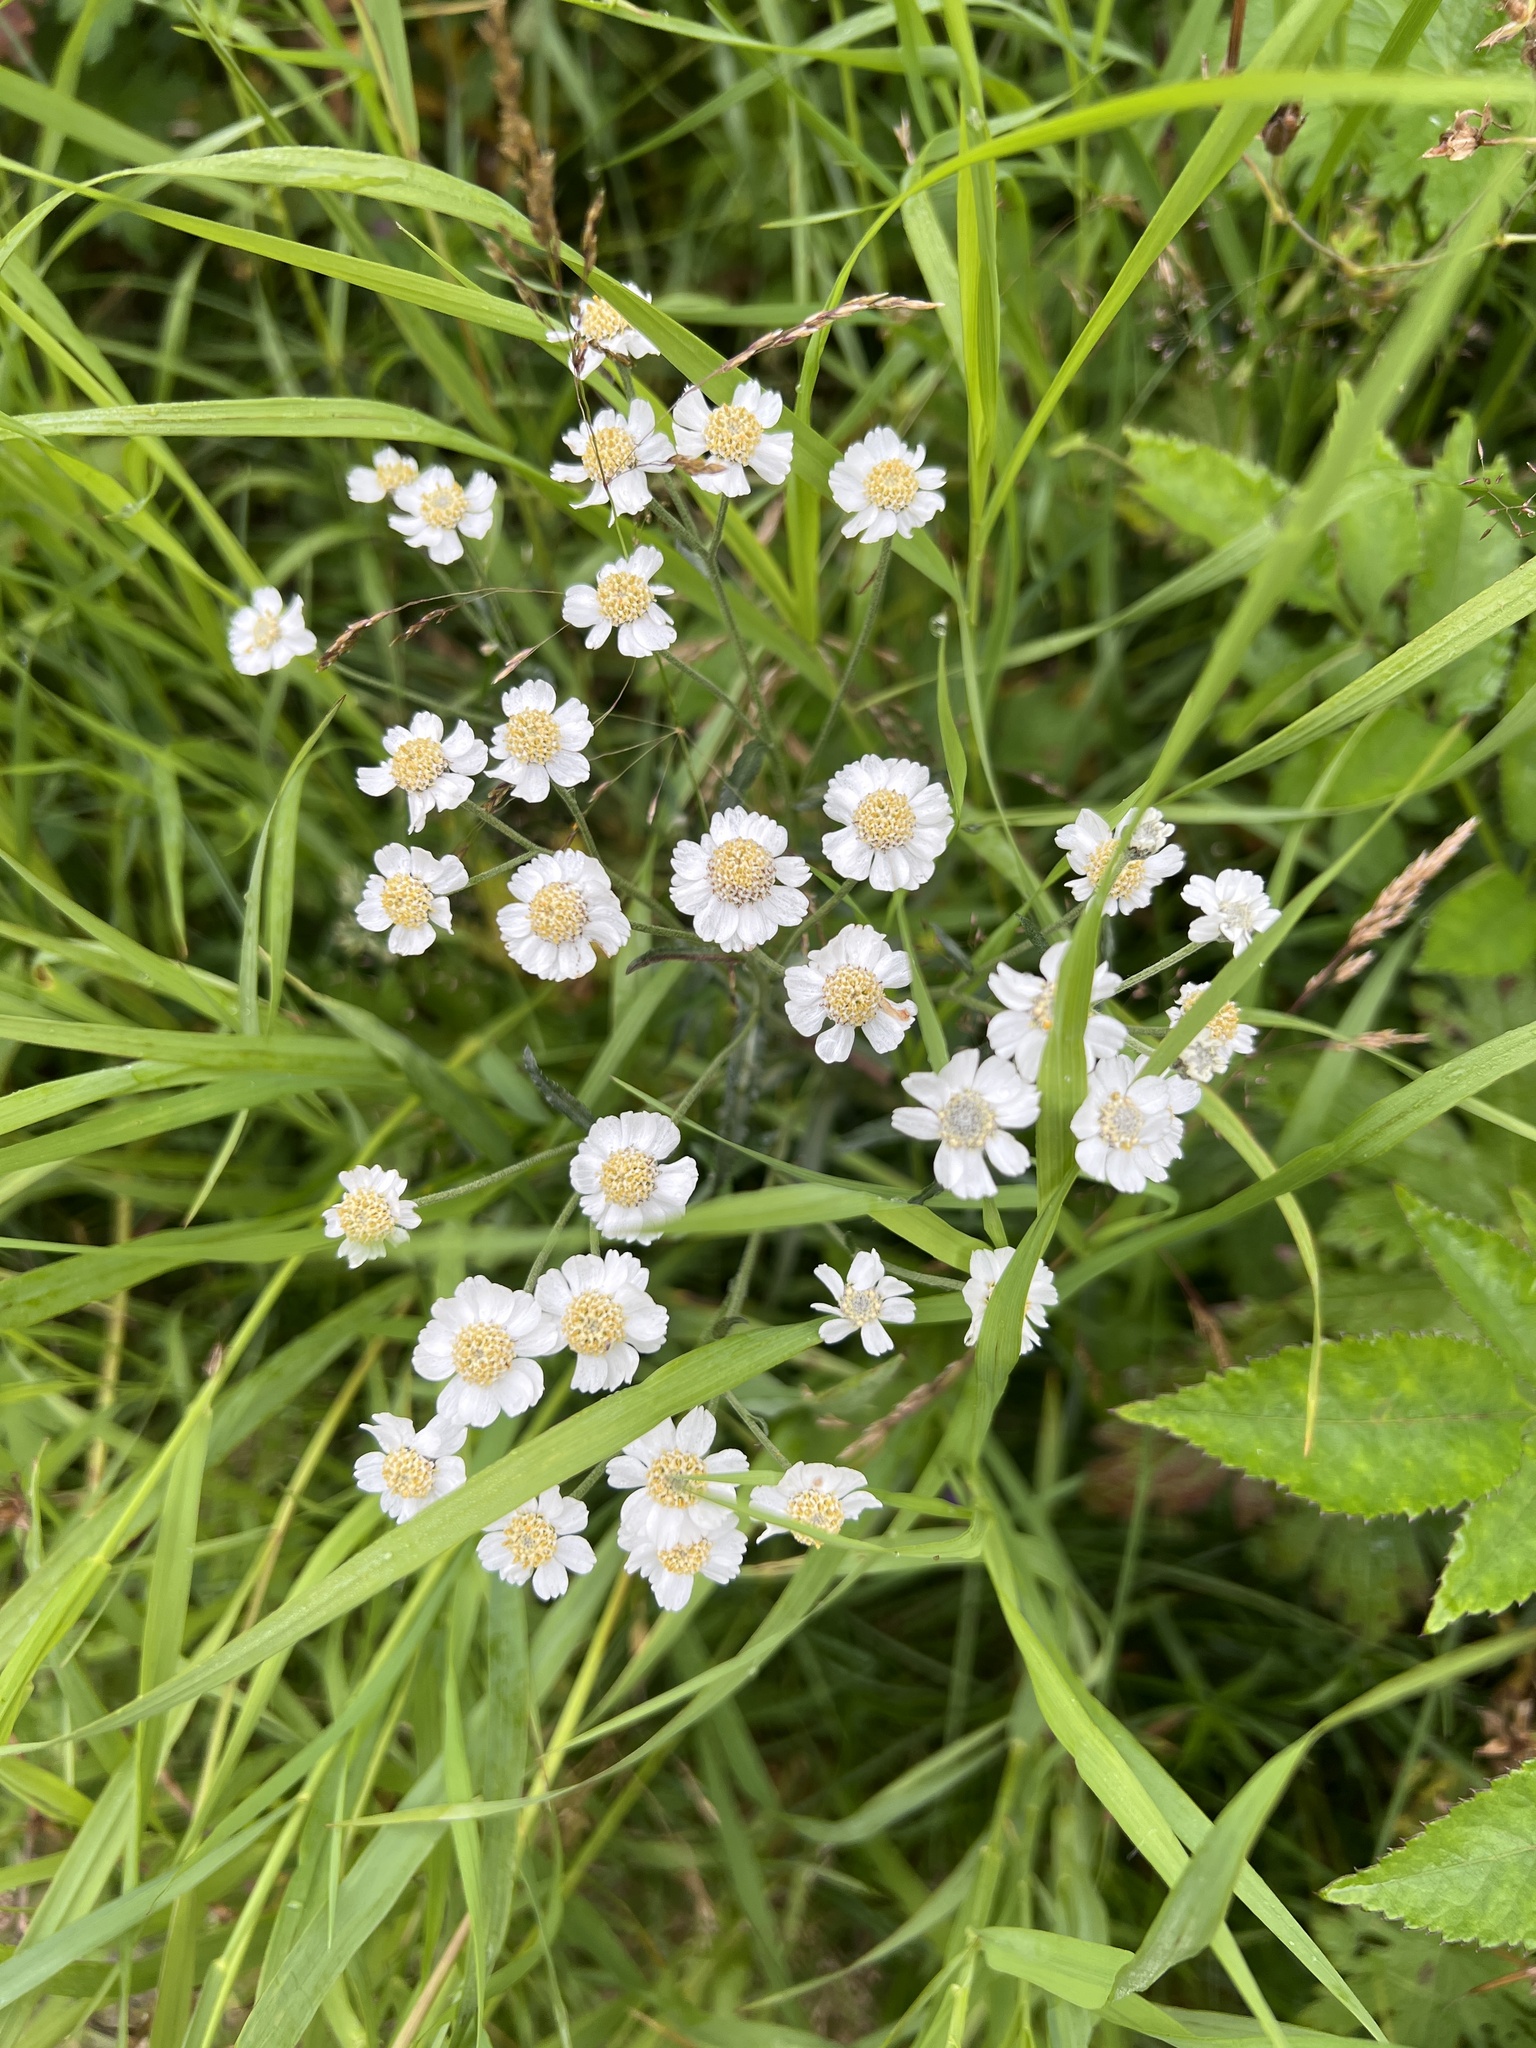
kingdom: Plantae
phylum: Tracheophyta
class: Magnoliopsida
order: Asterales
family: Asteraceae
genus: Achillea
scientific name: Achillea ptarmica
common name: Sneezeweed
